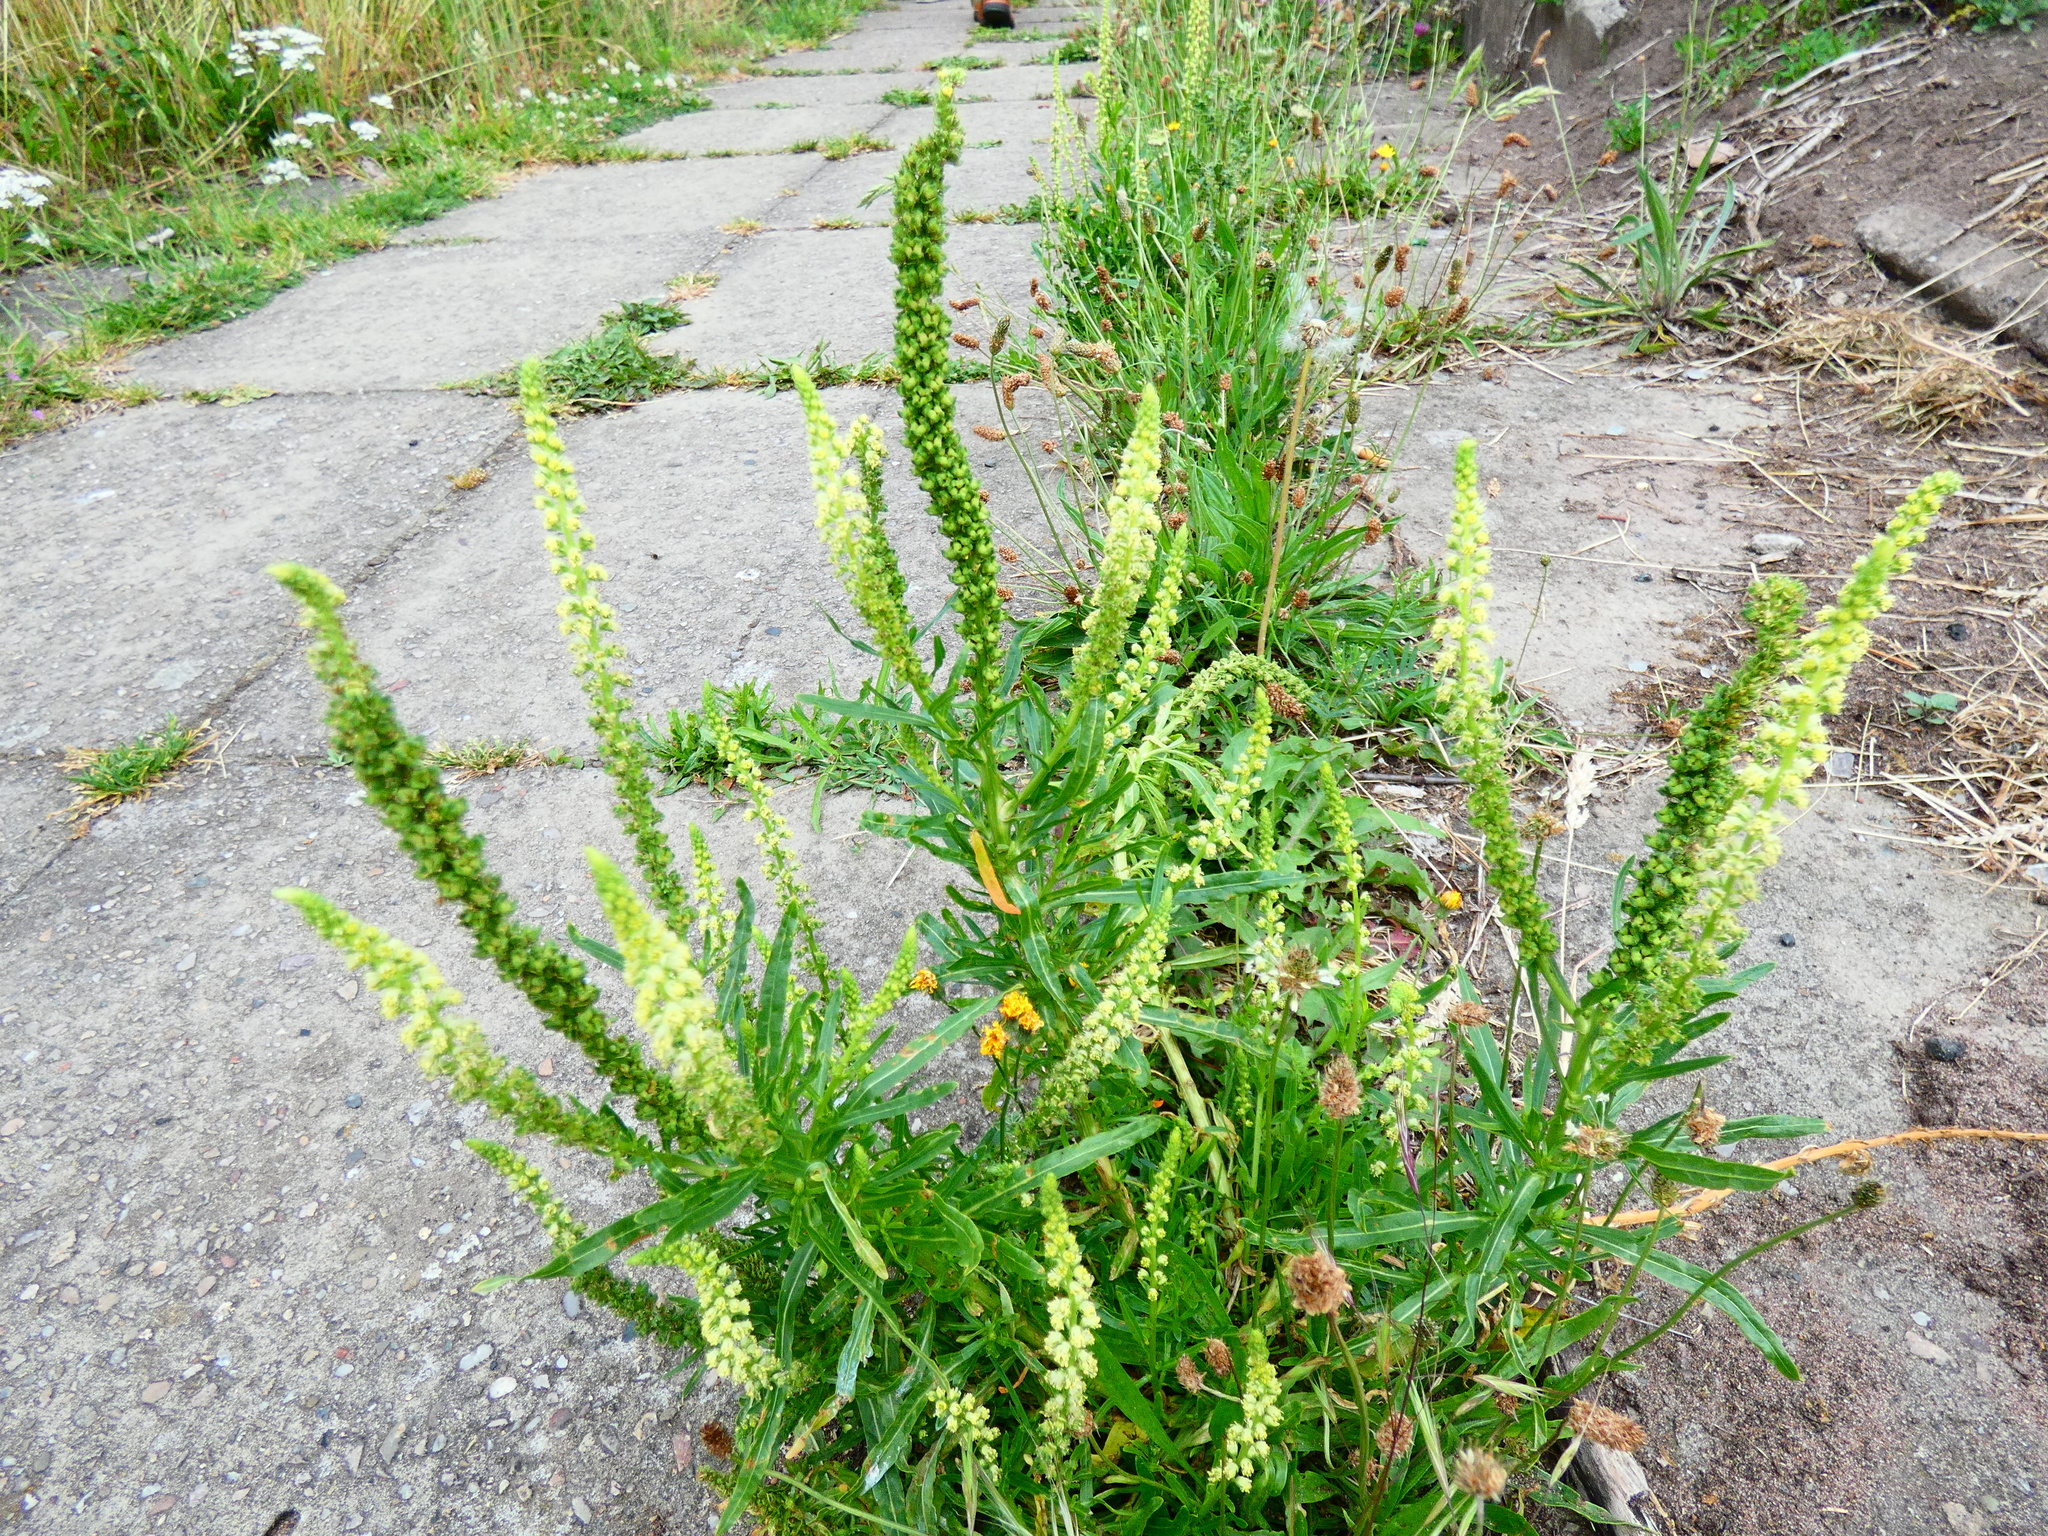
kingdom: Plantae
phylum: Tracheophyta
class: Magnoliopsida
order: Brassicales
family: Resedaceae
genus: Reseda
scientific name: Reseda luteola
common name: Weld
